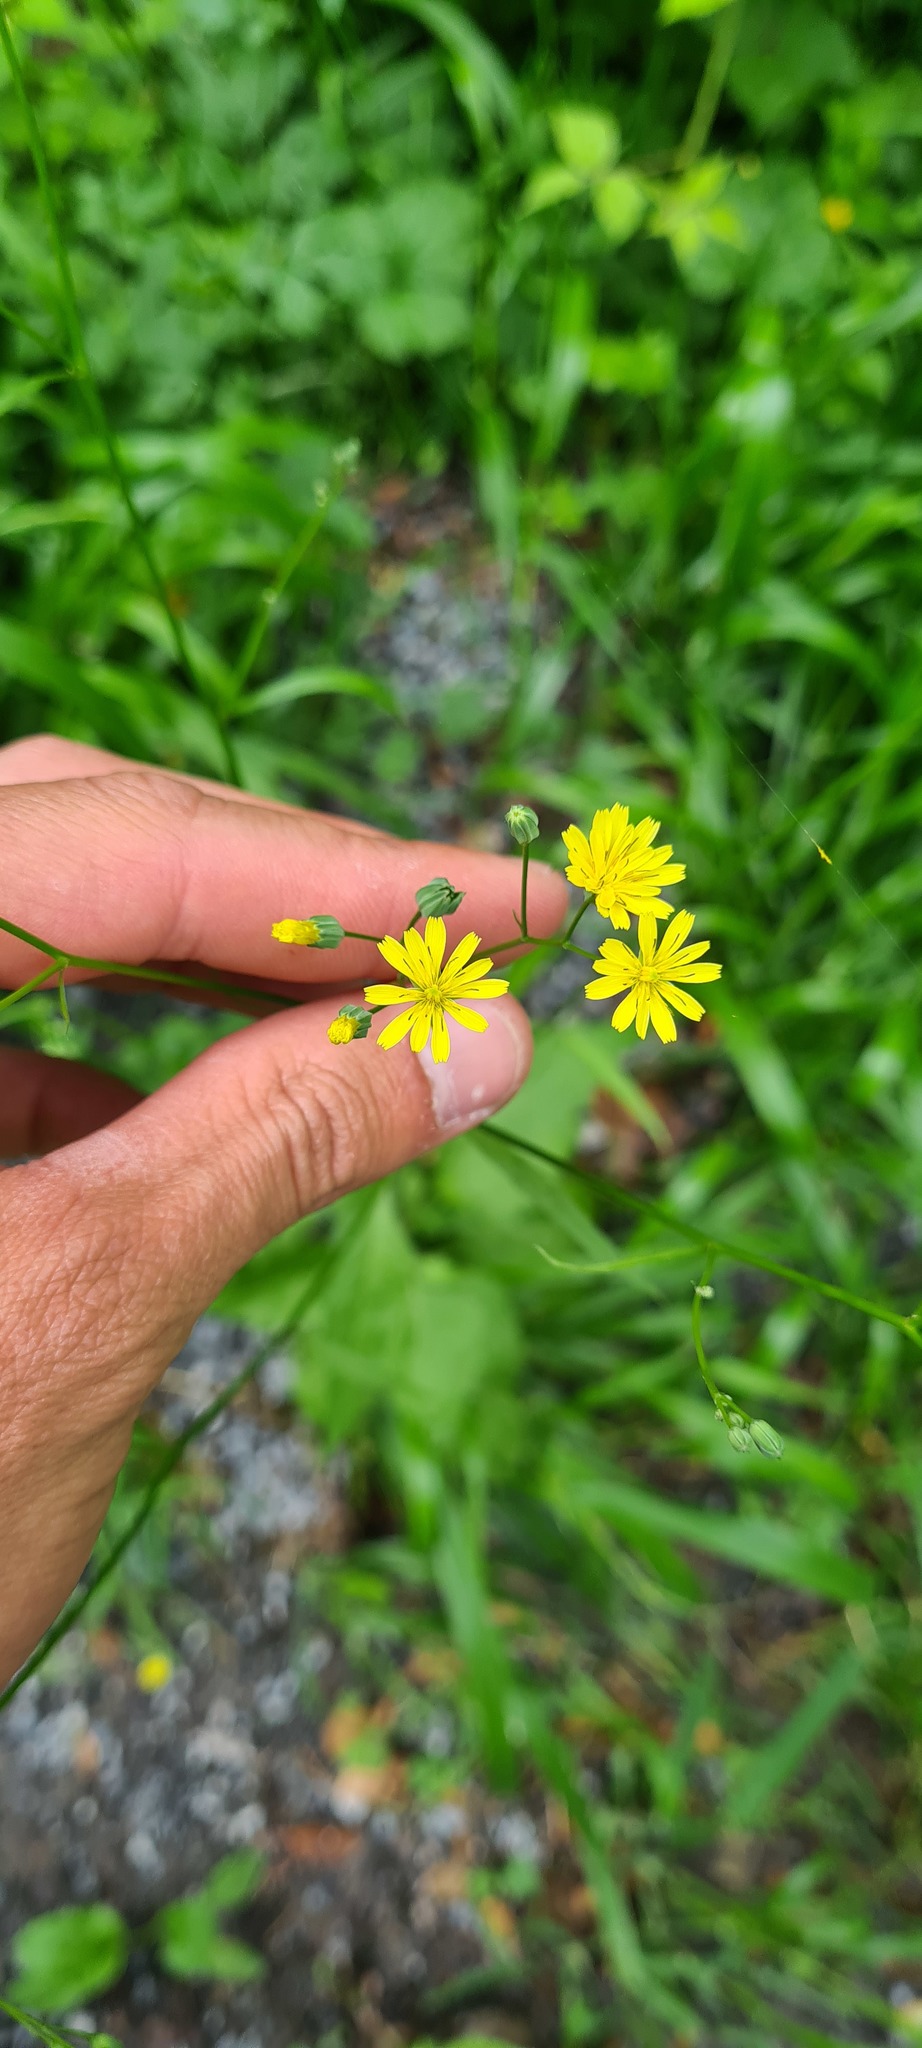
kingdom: Plantae
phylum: Tracheophyta
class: Magnoliopsida
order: Asterales
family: Asteraceae
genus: Lapsana
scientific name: Lapsana communis
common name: Nipplewort
